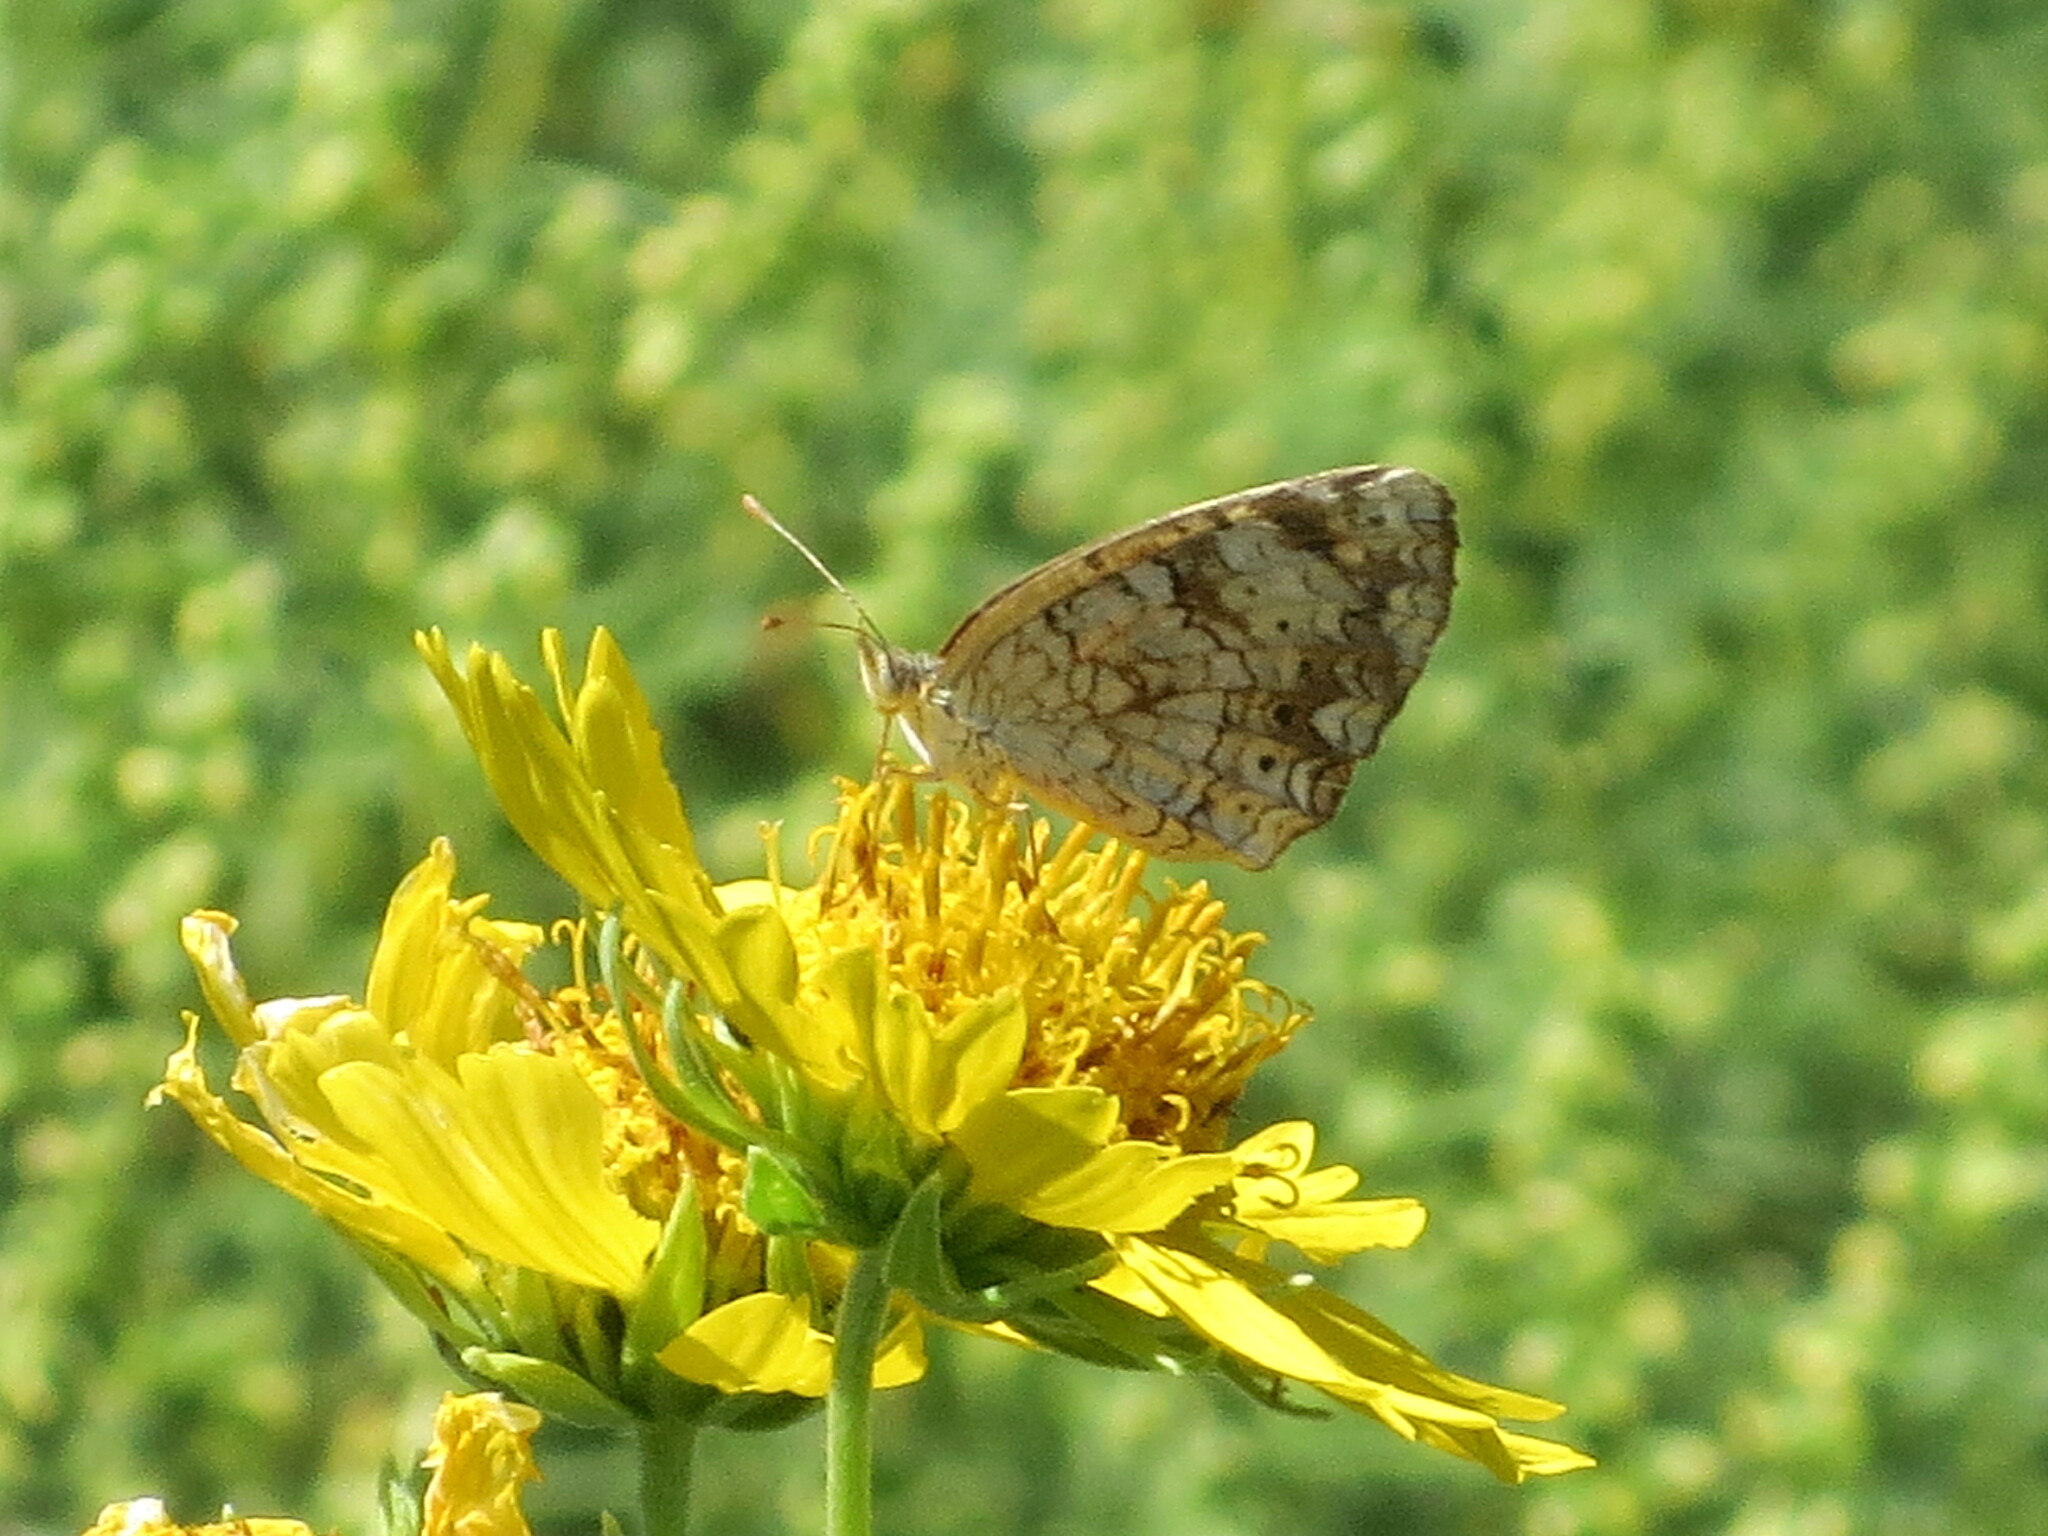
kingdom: Animalia
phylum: Arthropoda
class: Insecta
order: Lepidoptera
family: Nymphalidae
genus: Phyciodes
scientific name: Phyciodes vesta
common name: Vesta crescent
